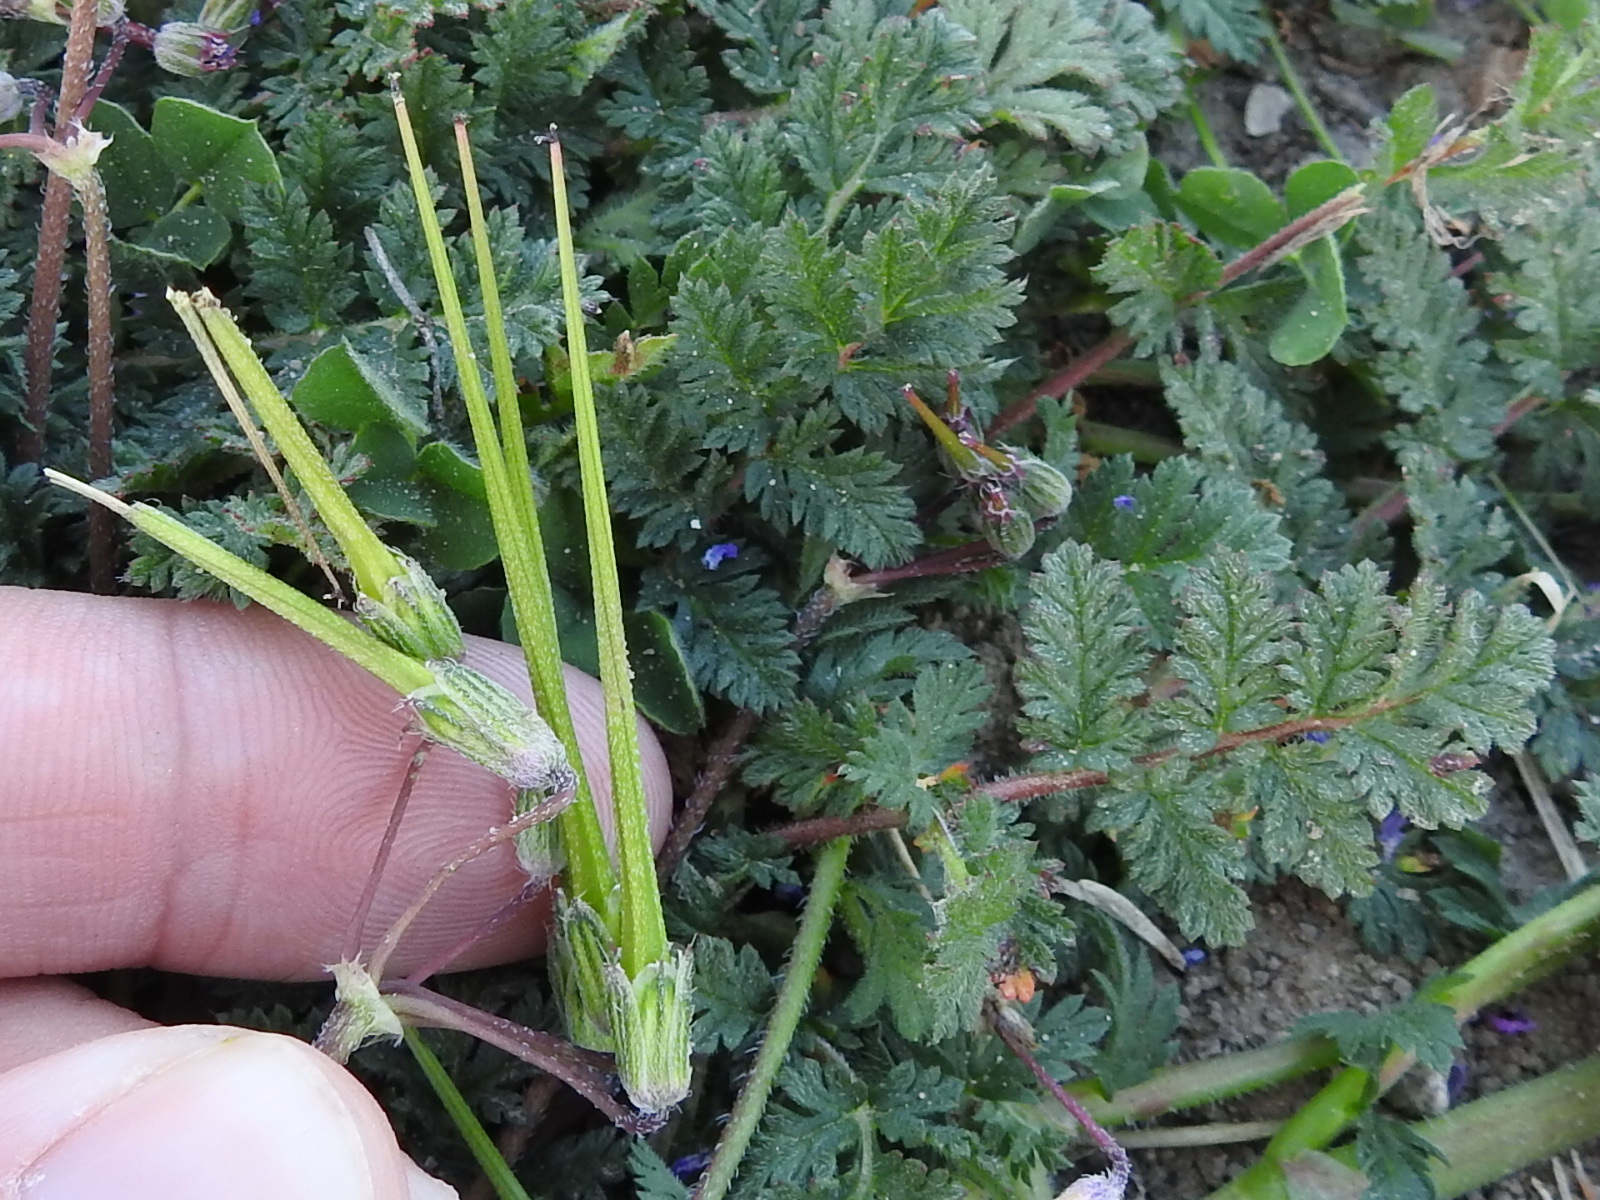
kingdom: Plantae
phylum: Tracheophyta
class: Magnoliopsida
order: Geraniales
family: Geraniaceae
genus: Erodium
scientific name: Erodium cicutarium
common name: Common stork's-bill
